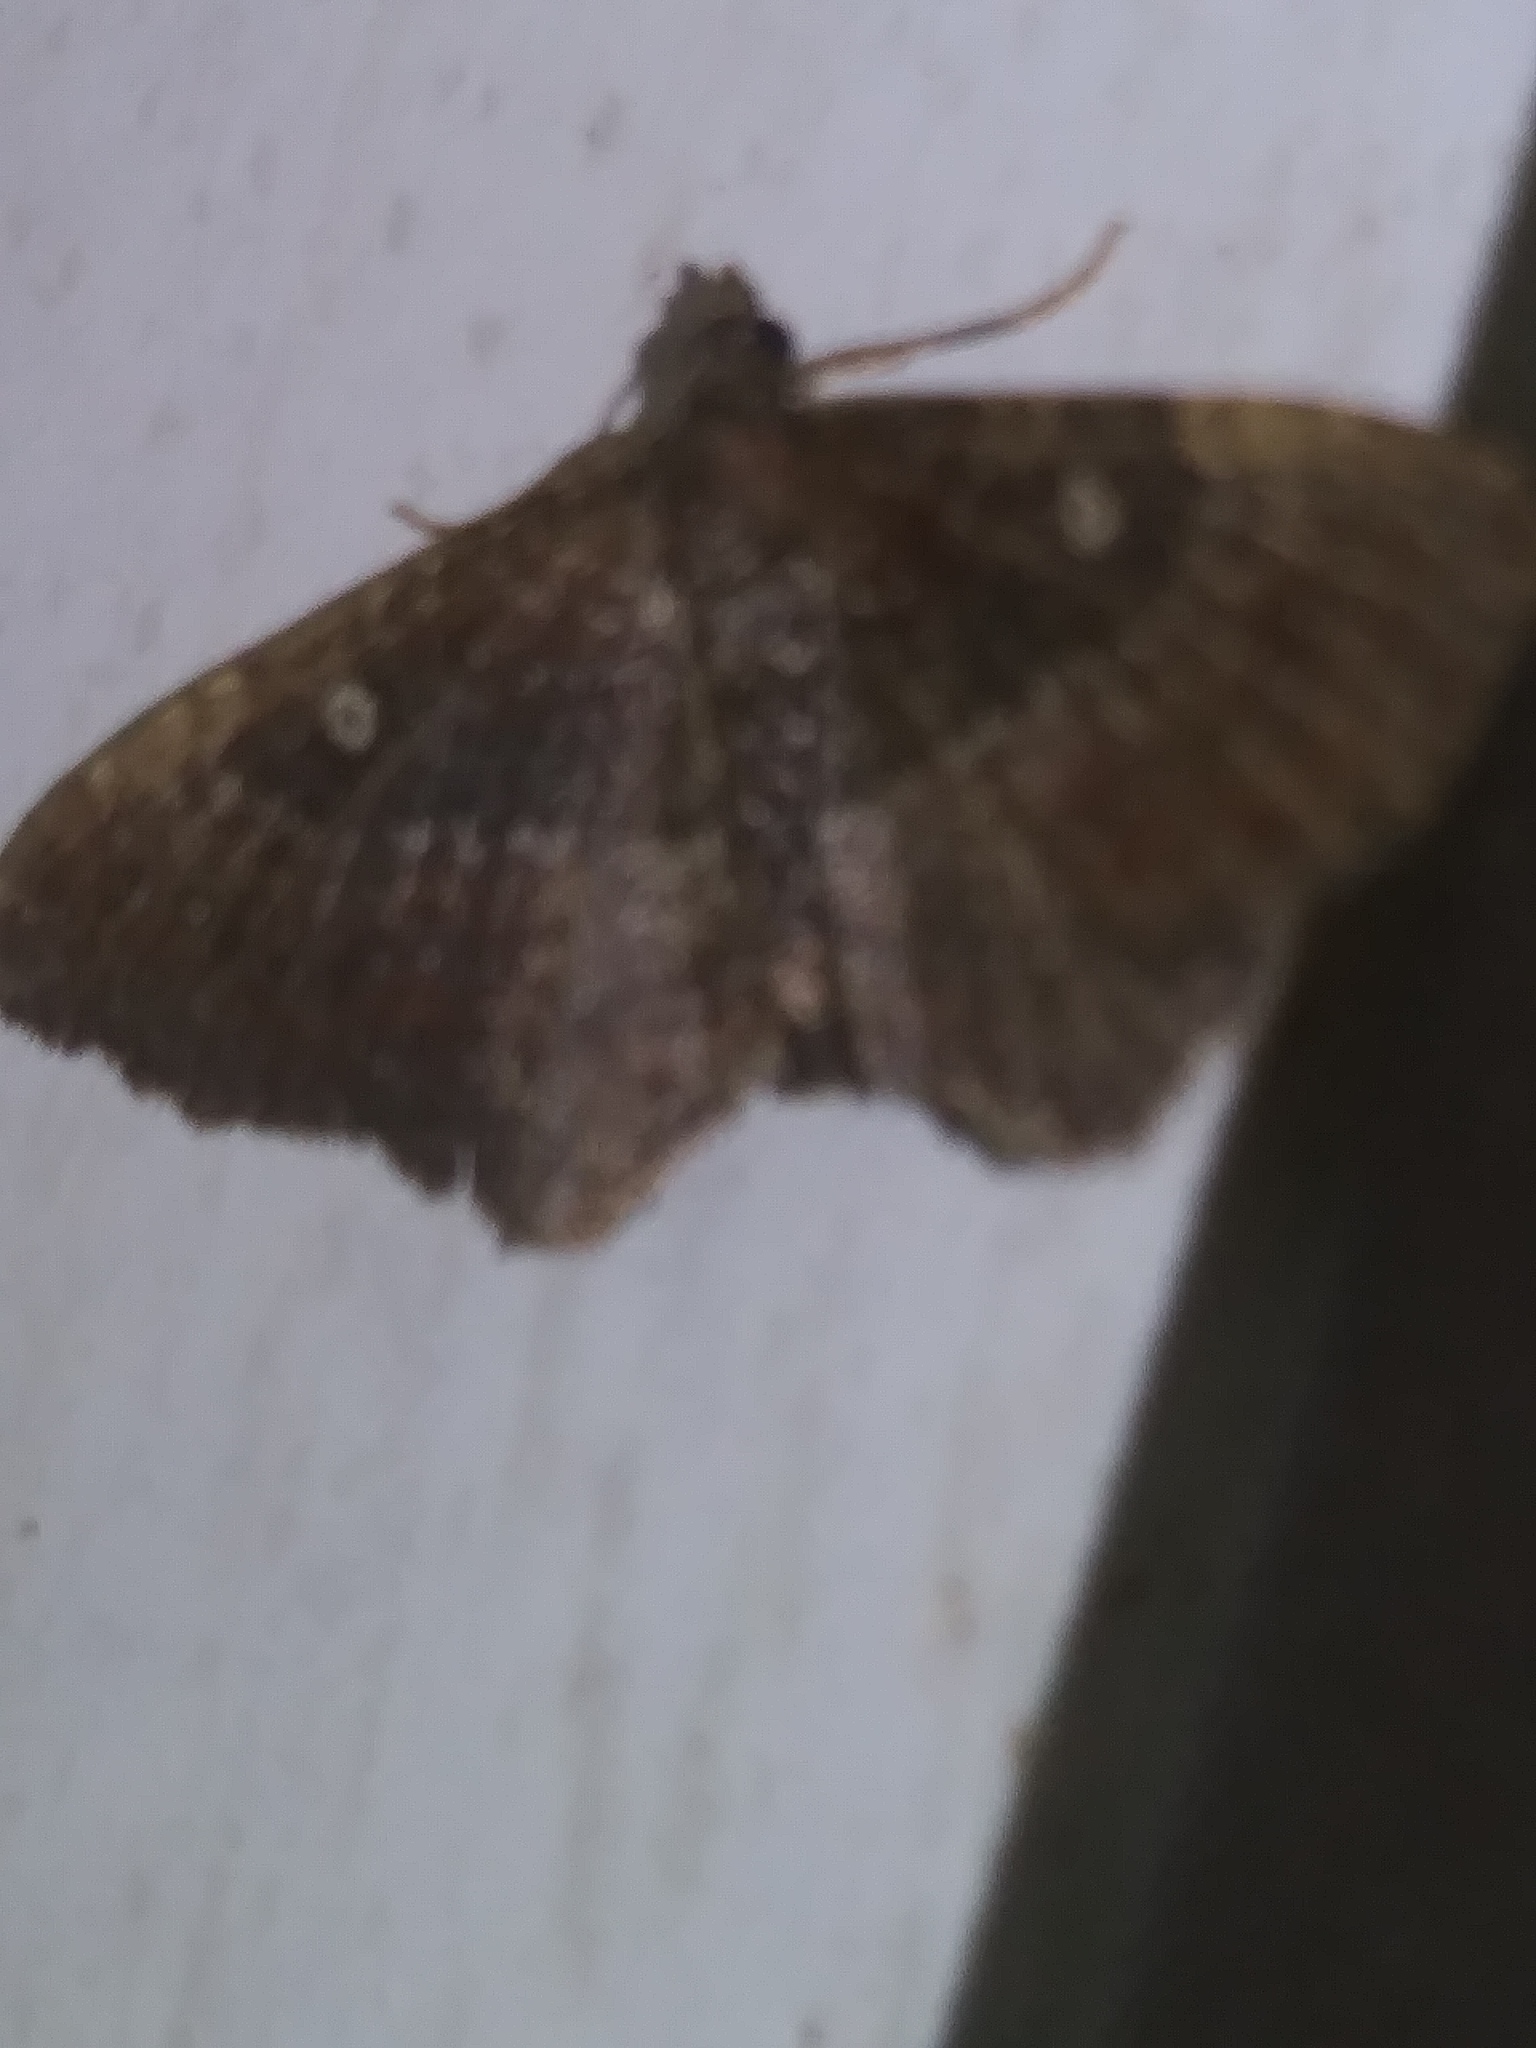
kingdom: Animalia
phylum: Arthropoda
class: Insecta
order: Lepidoptera
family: Geometridae
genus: Orthonama
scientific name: Orthonama obstipata
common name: The gem
